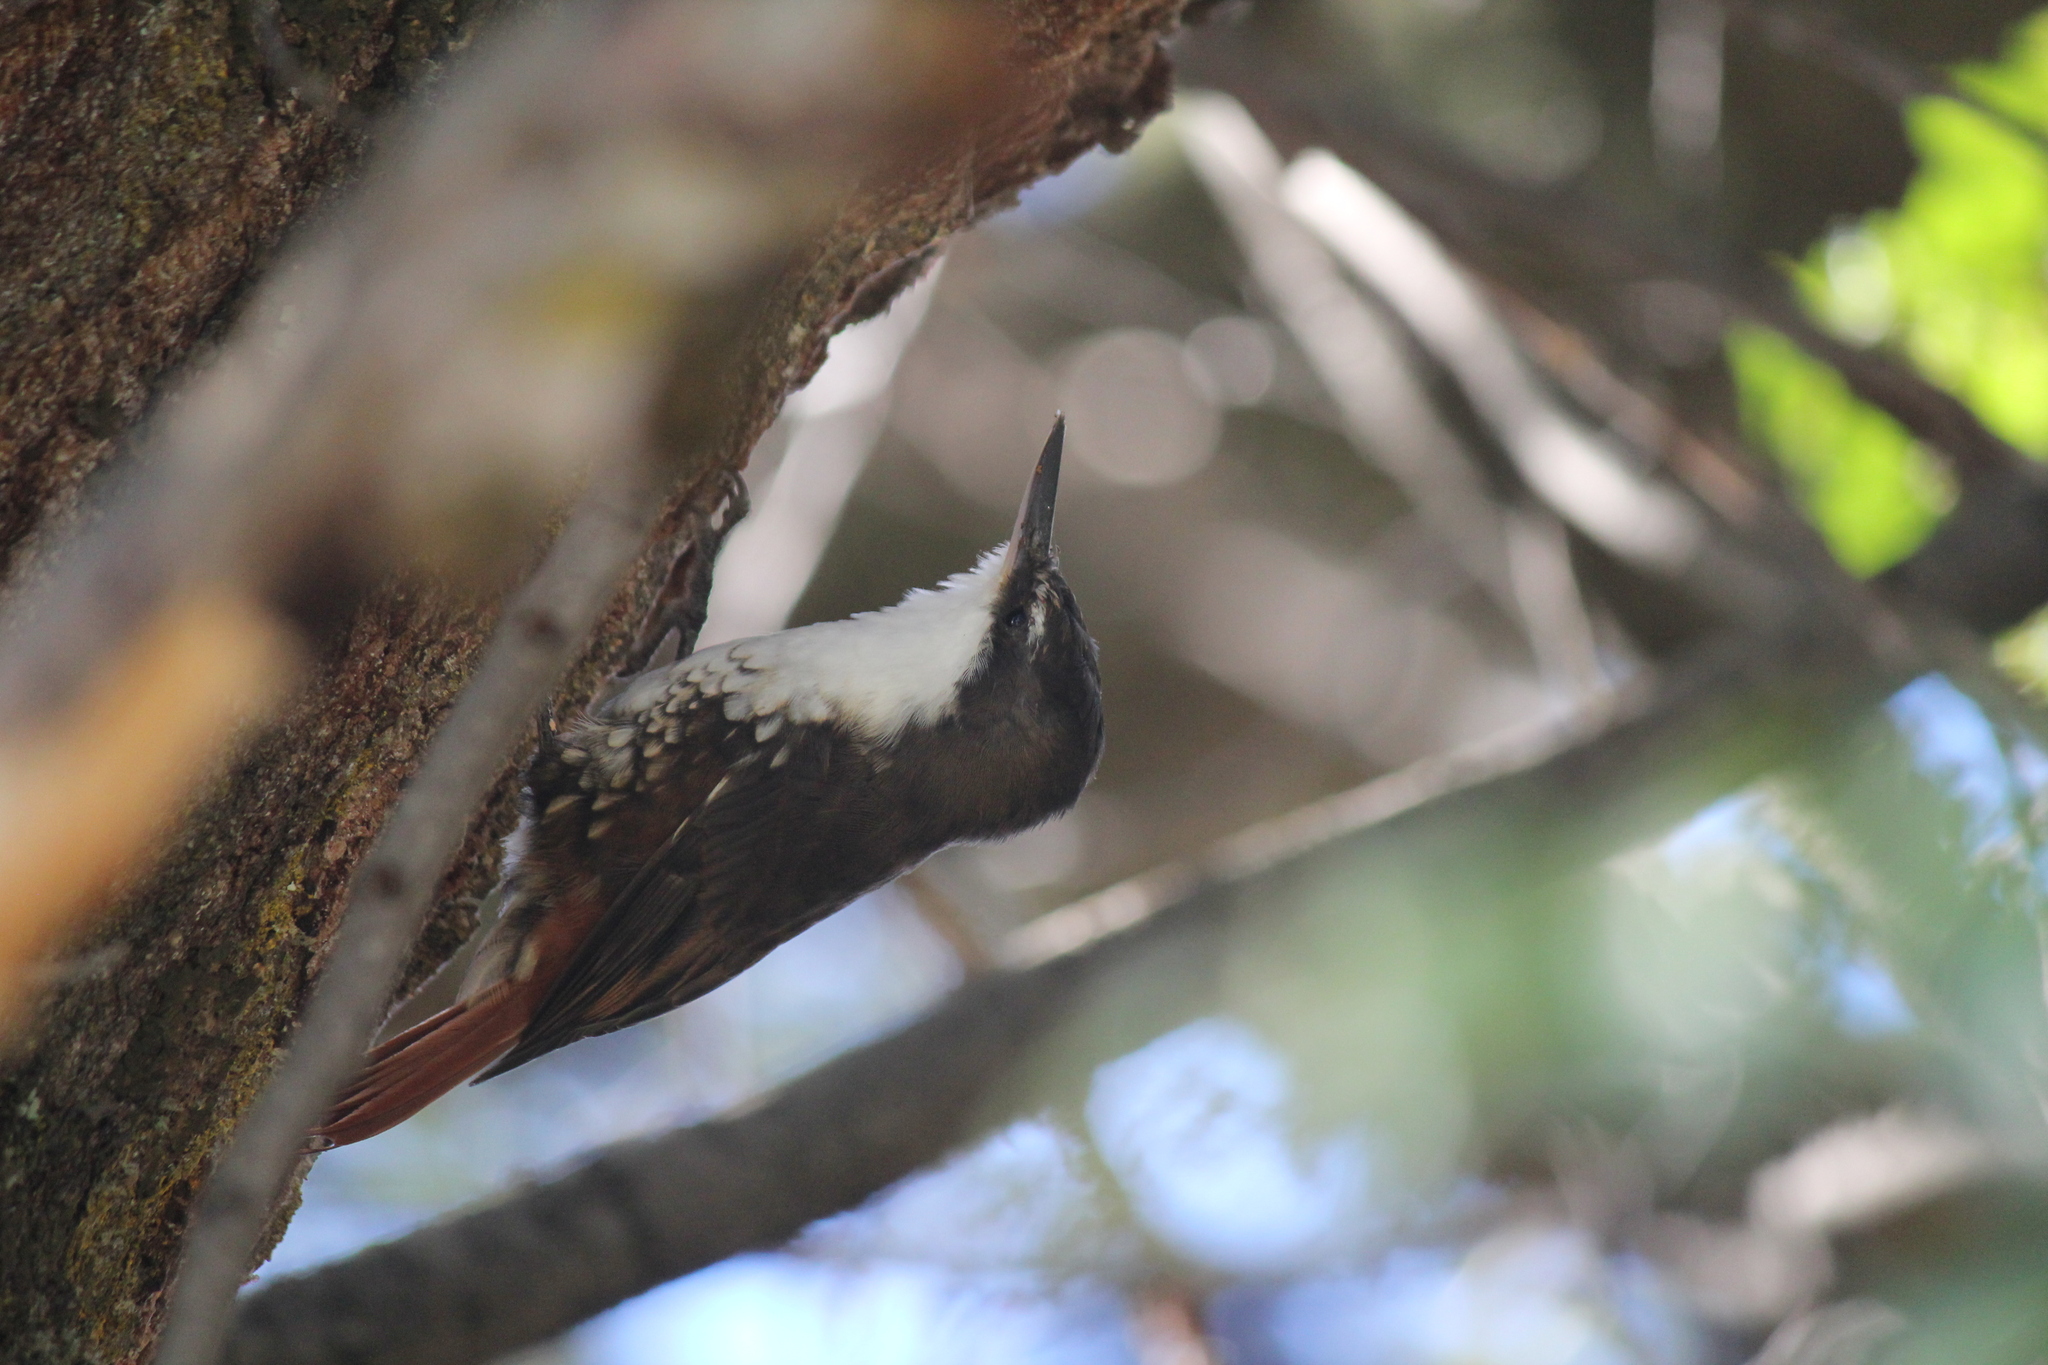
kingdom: Animalia
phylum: Chordata
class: Aves
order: Passeriformes
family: Furnariidae
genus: Pygarrhichas
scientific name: Pygarrhichas albogularis
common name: White-throated treerunner
